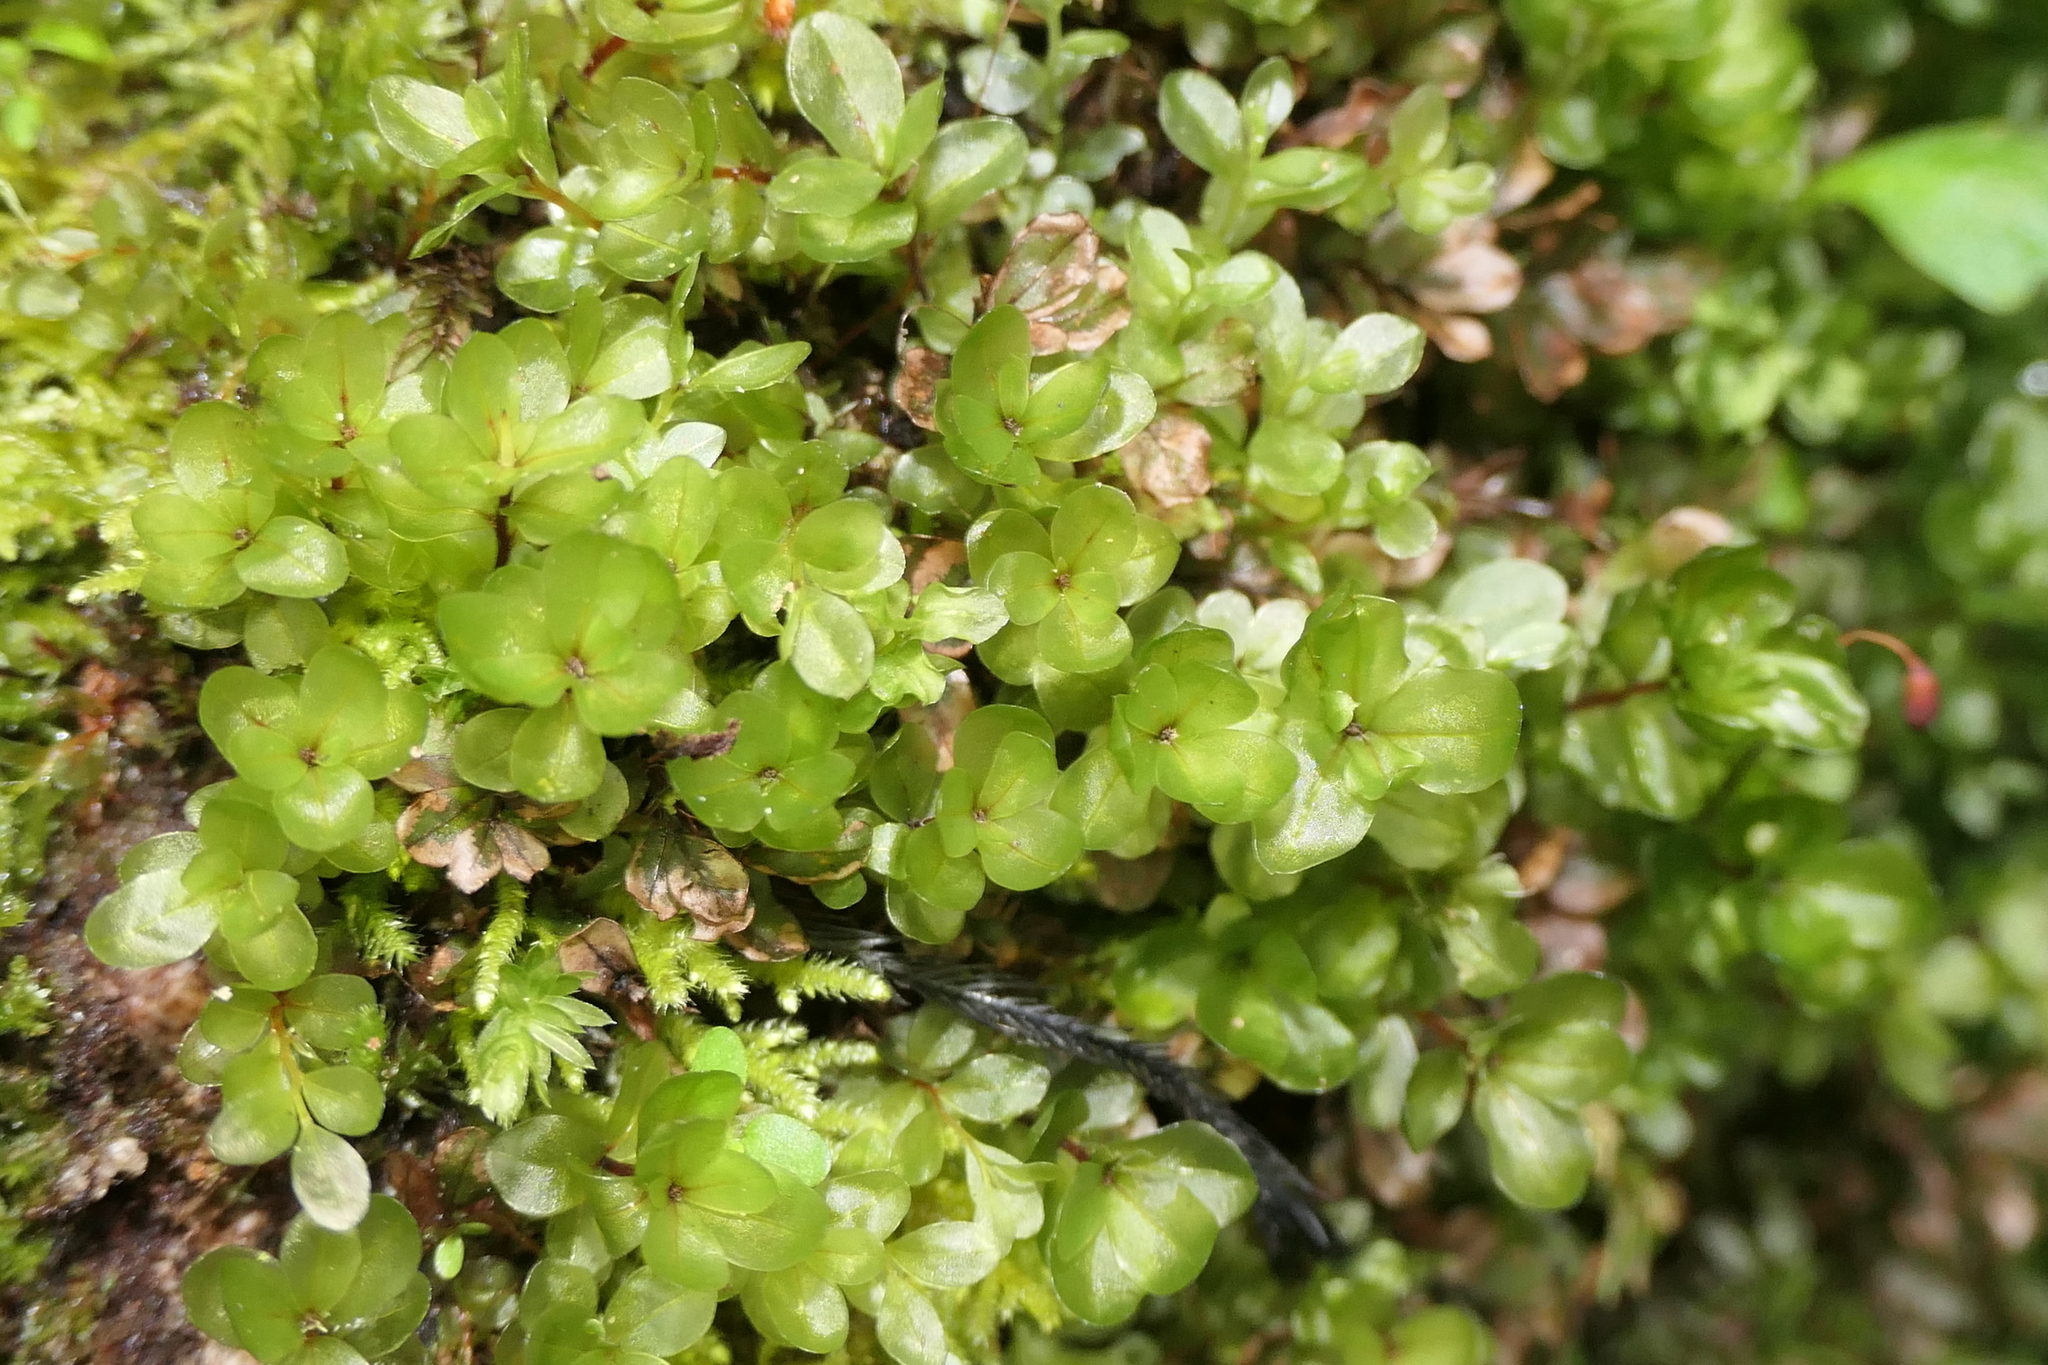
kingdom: Plantae
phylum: Bryophyta
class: Bryopsida
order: Bryales
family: Mniaceae
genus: Rhizomnium
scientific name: Rhizomnium punctatum
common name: Dotted leafy moss
